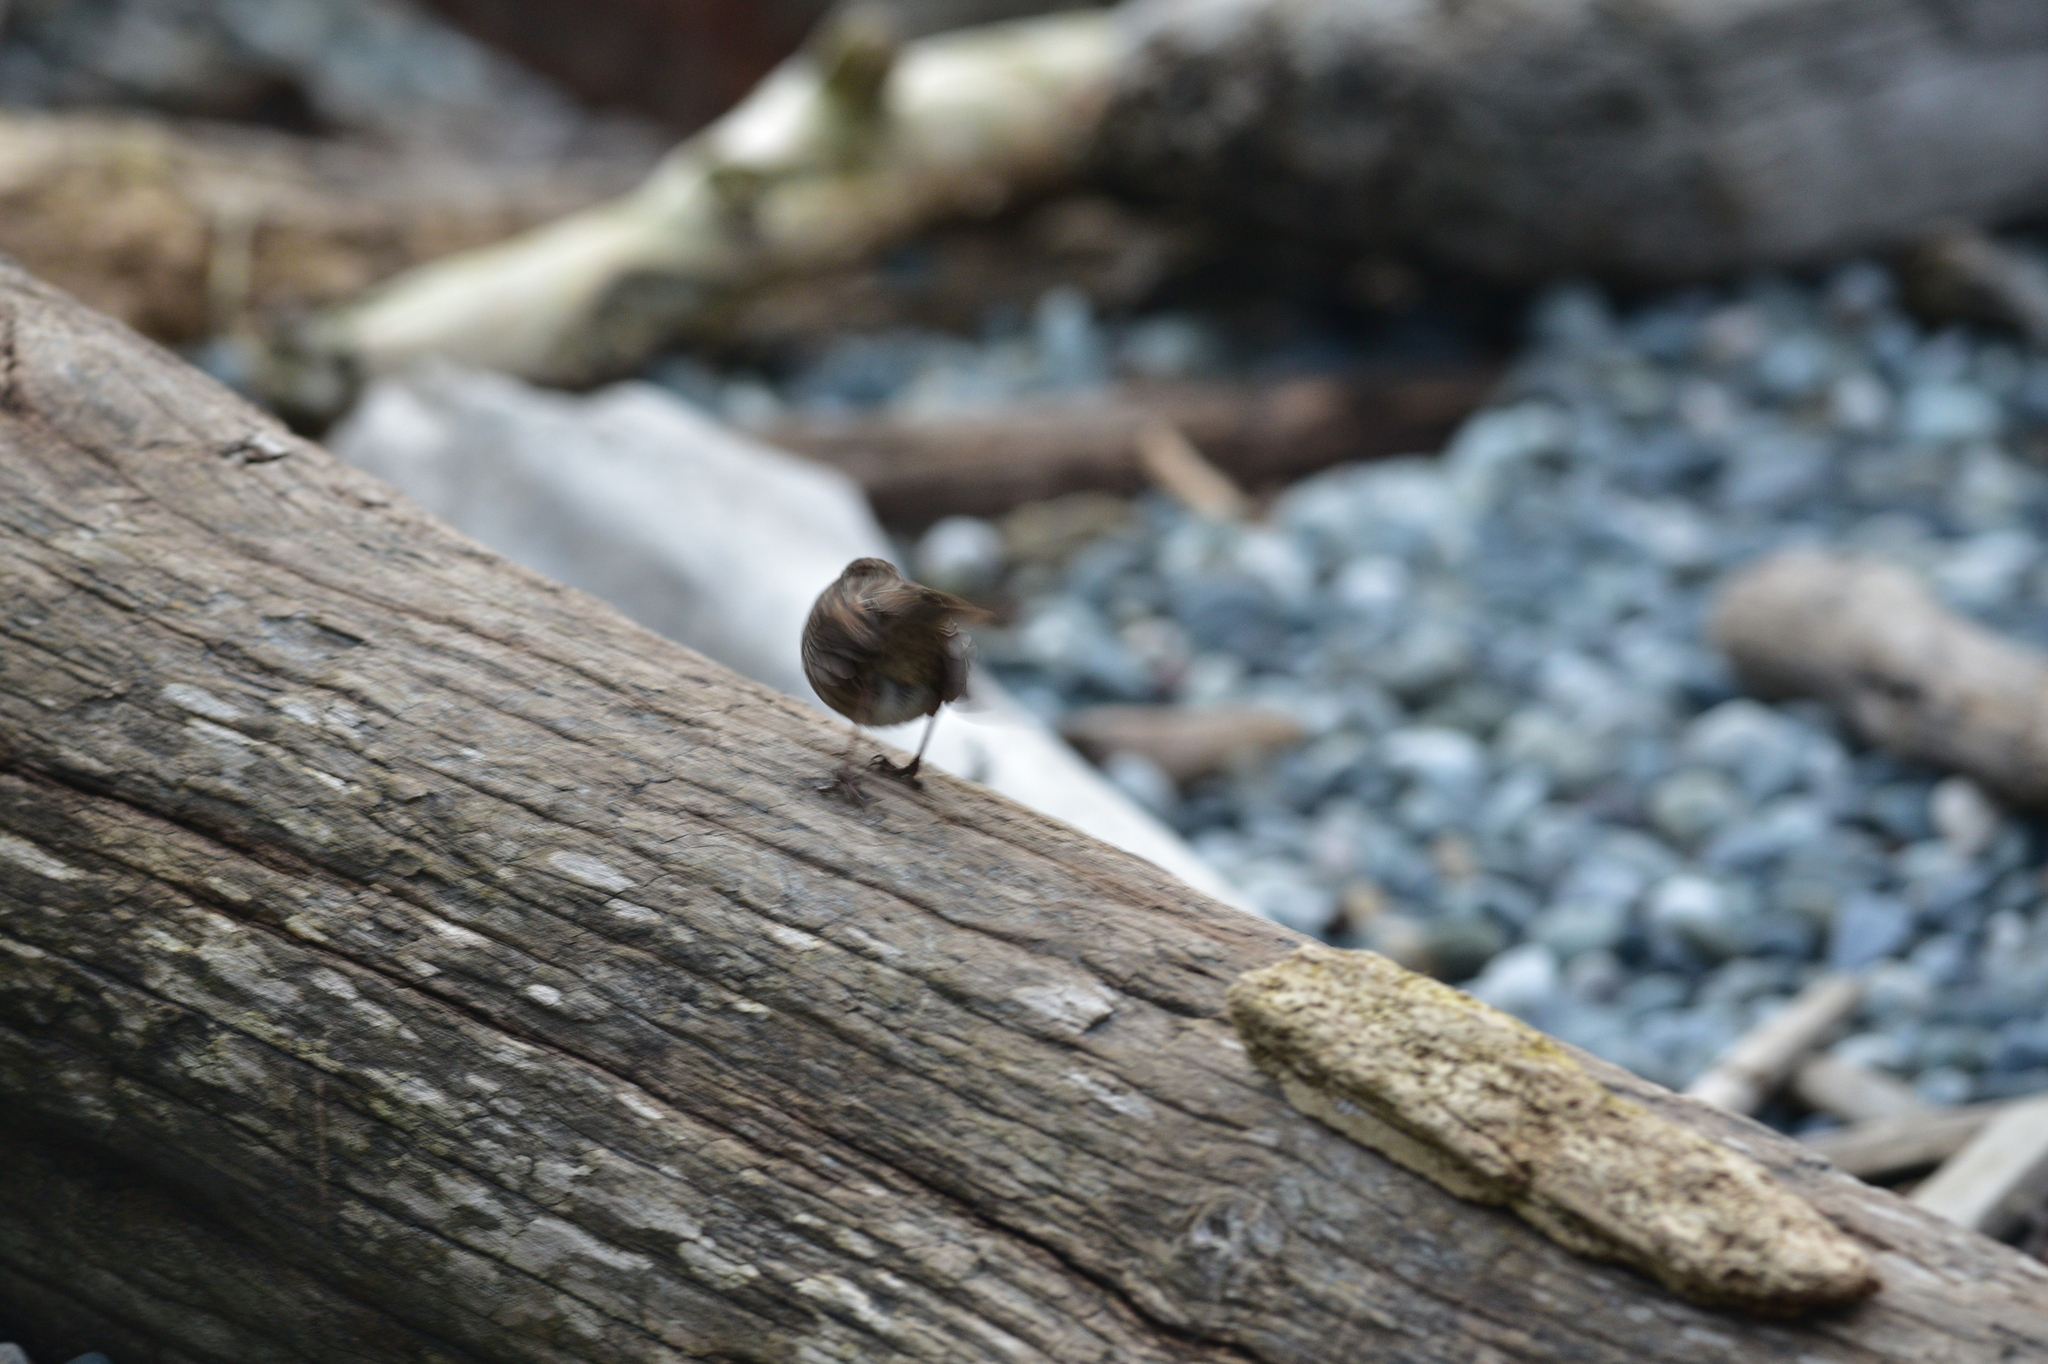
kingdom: Animalia
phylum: Chordata
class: Aves
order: Passeriformes
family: Passerellidae
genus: Melospiza
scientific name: Melospiza melodia
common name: Song sparrow
